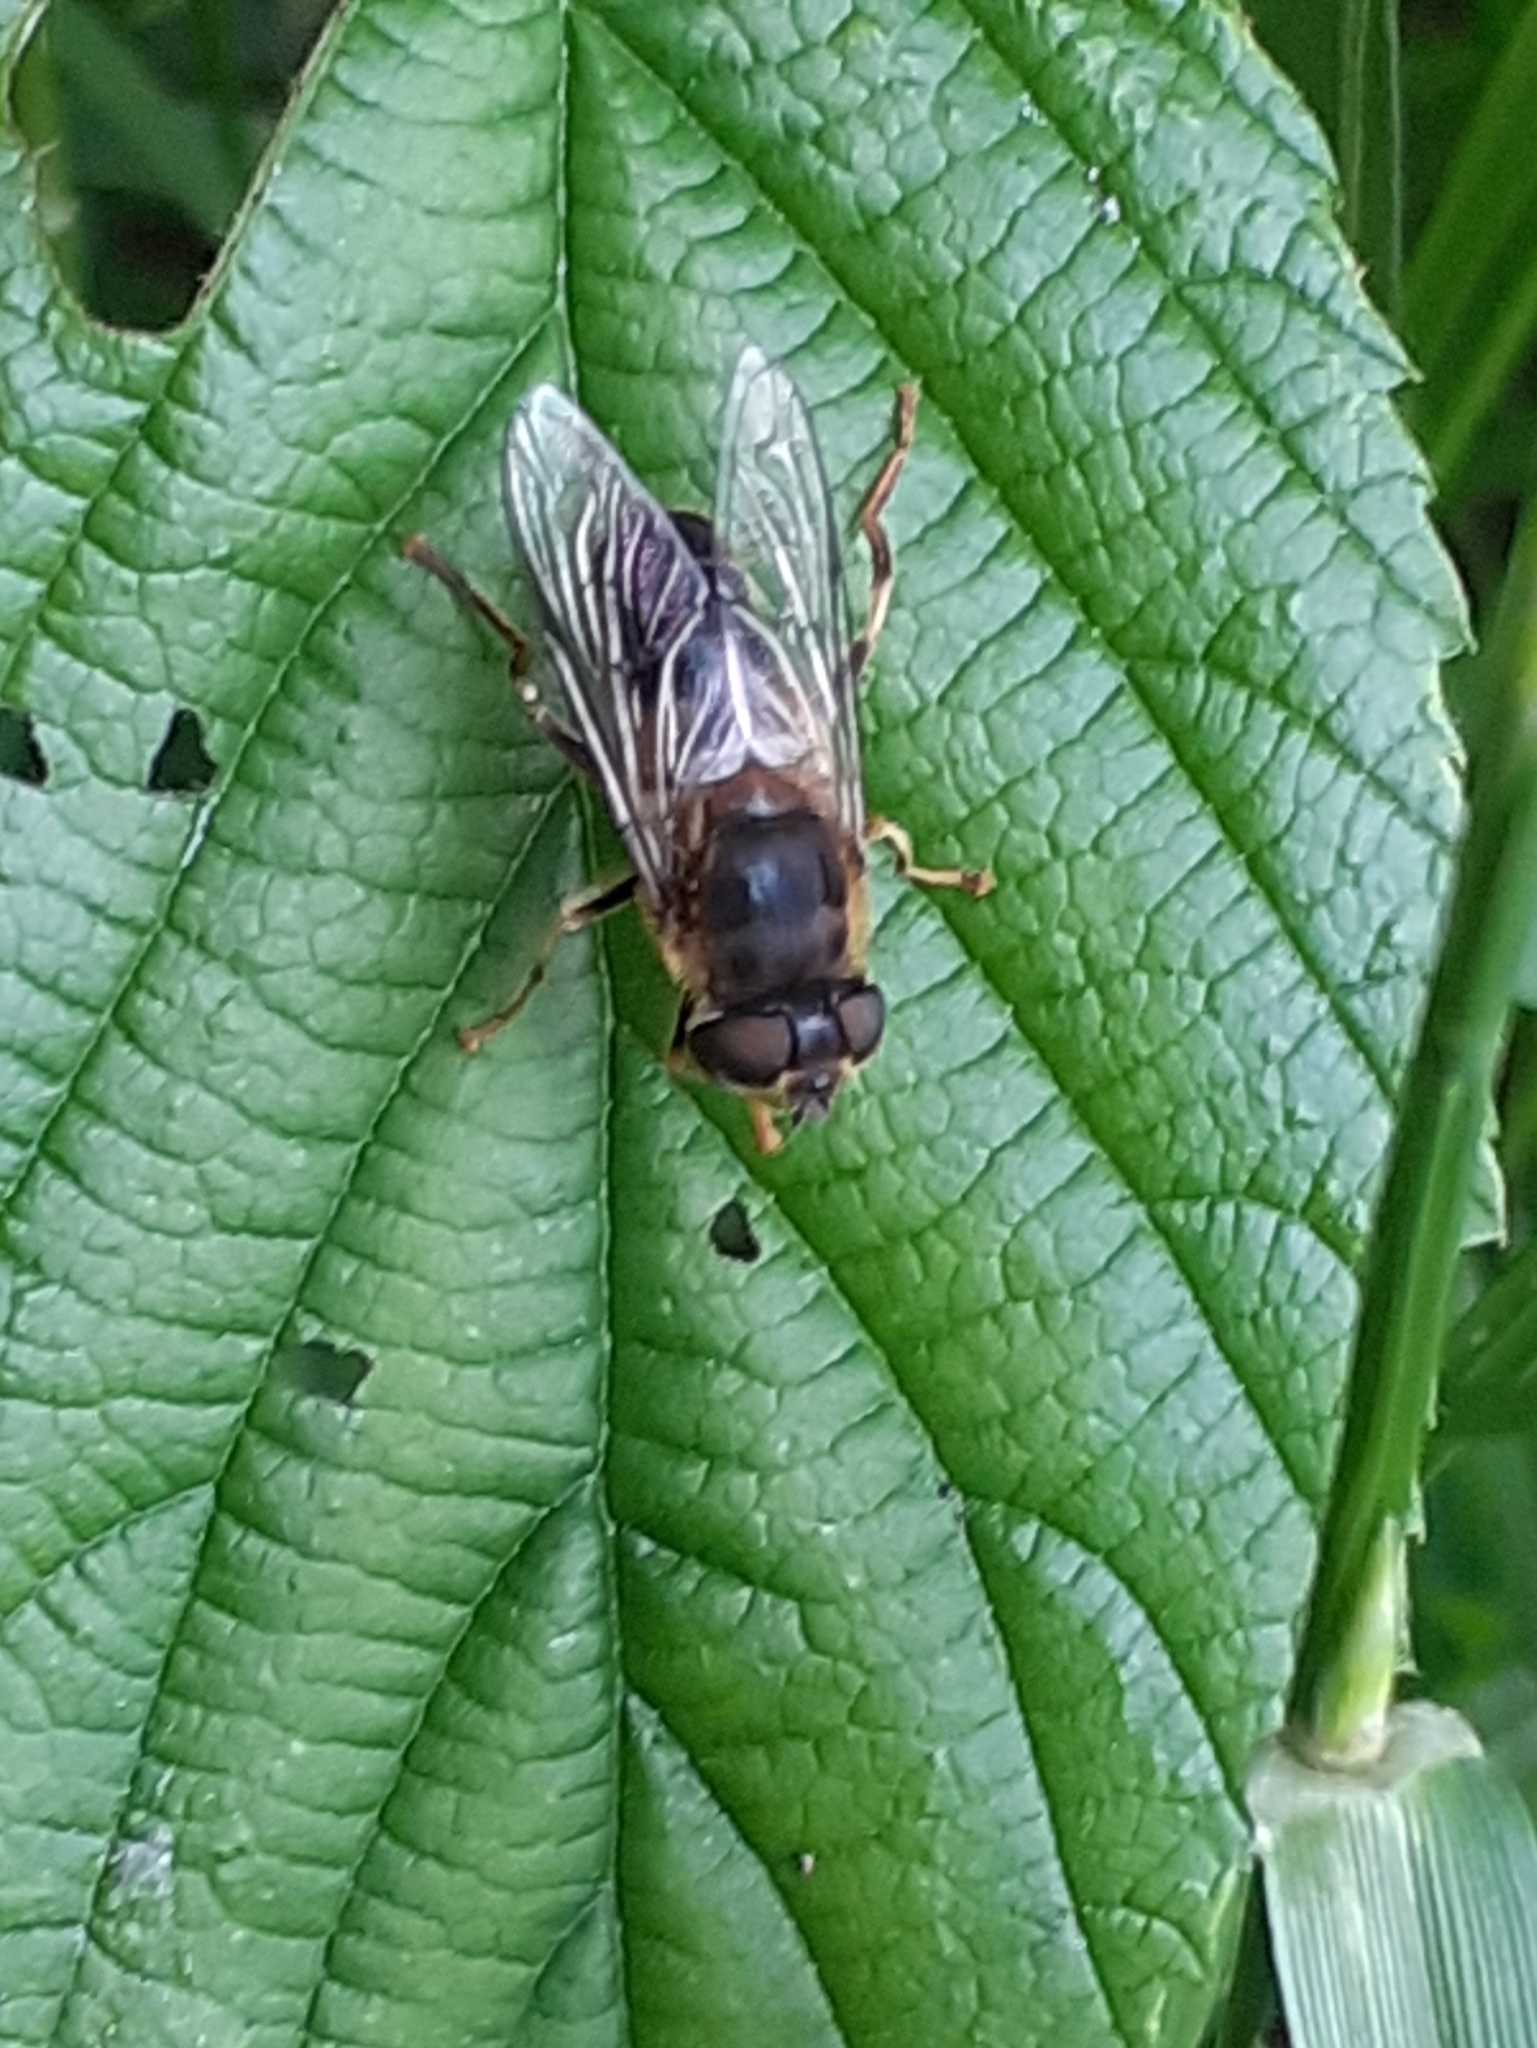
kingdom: Animalia
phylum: Arthropoda
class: Insecta
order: Diptera
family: Syrphidae
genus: Eristalis
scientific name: Eristalis pertinax
